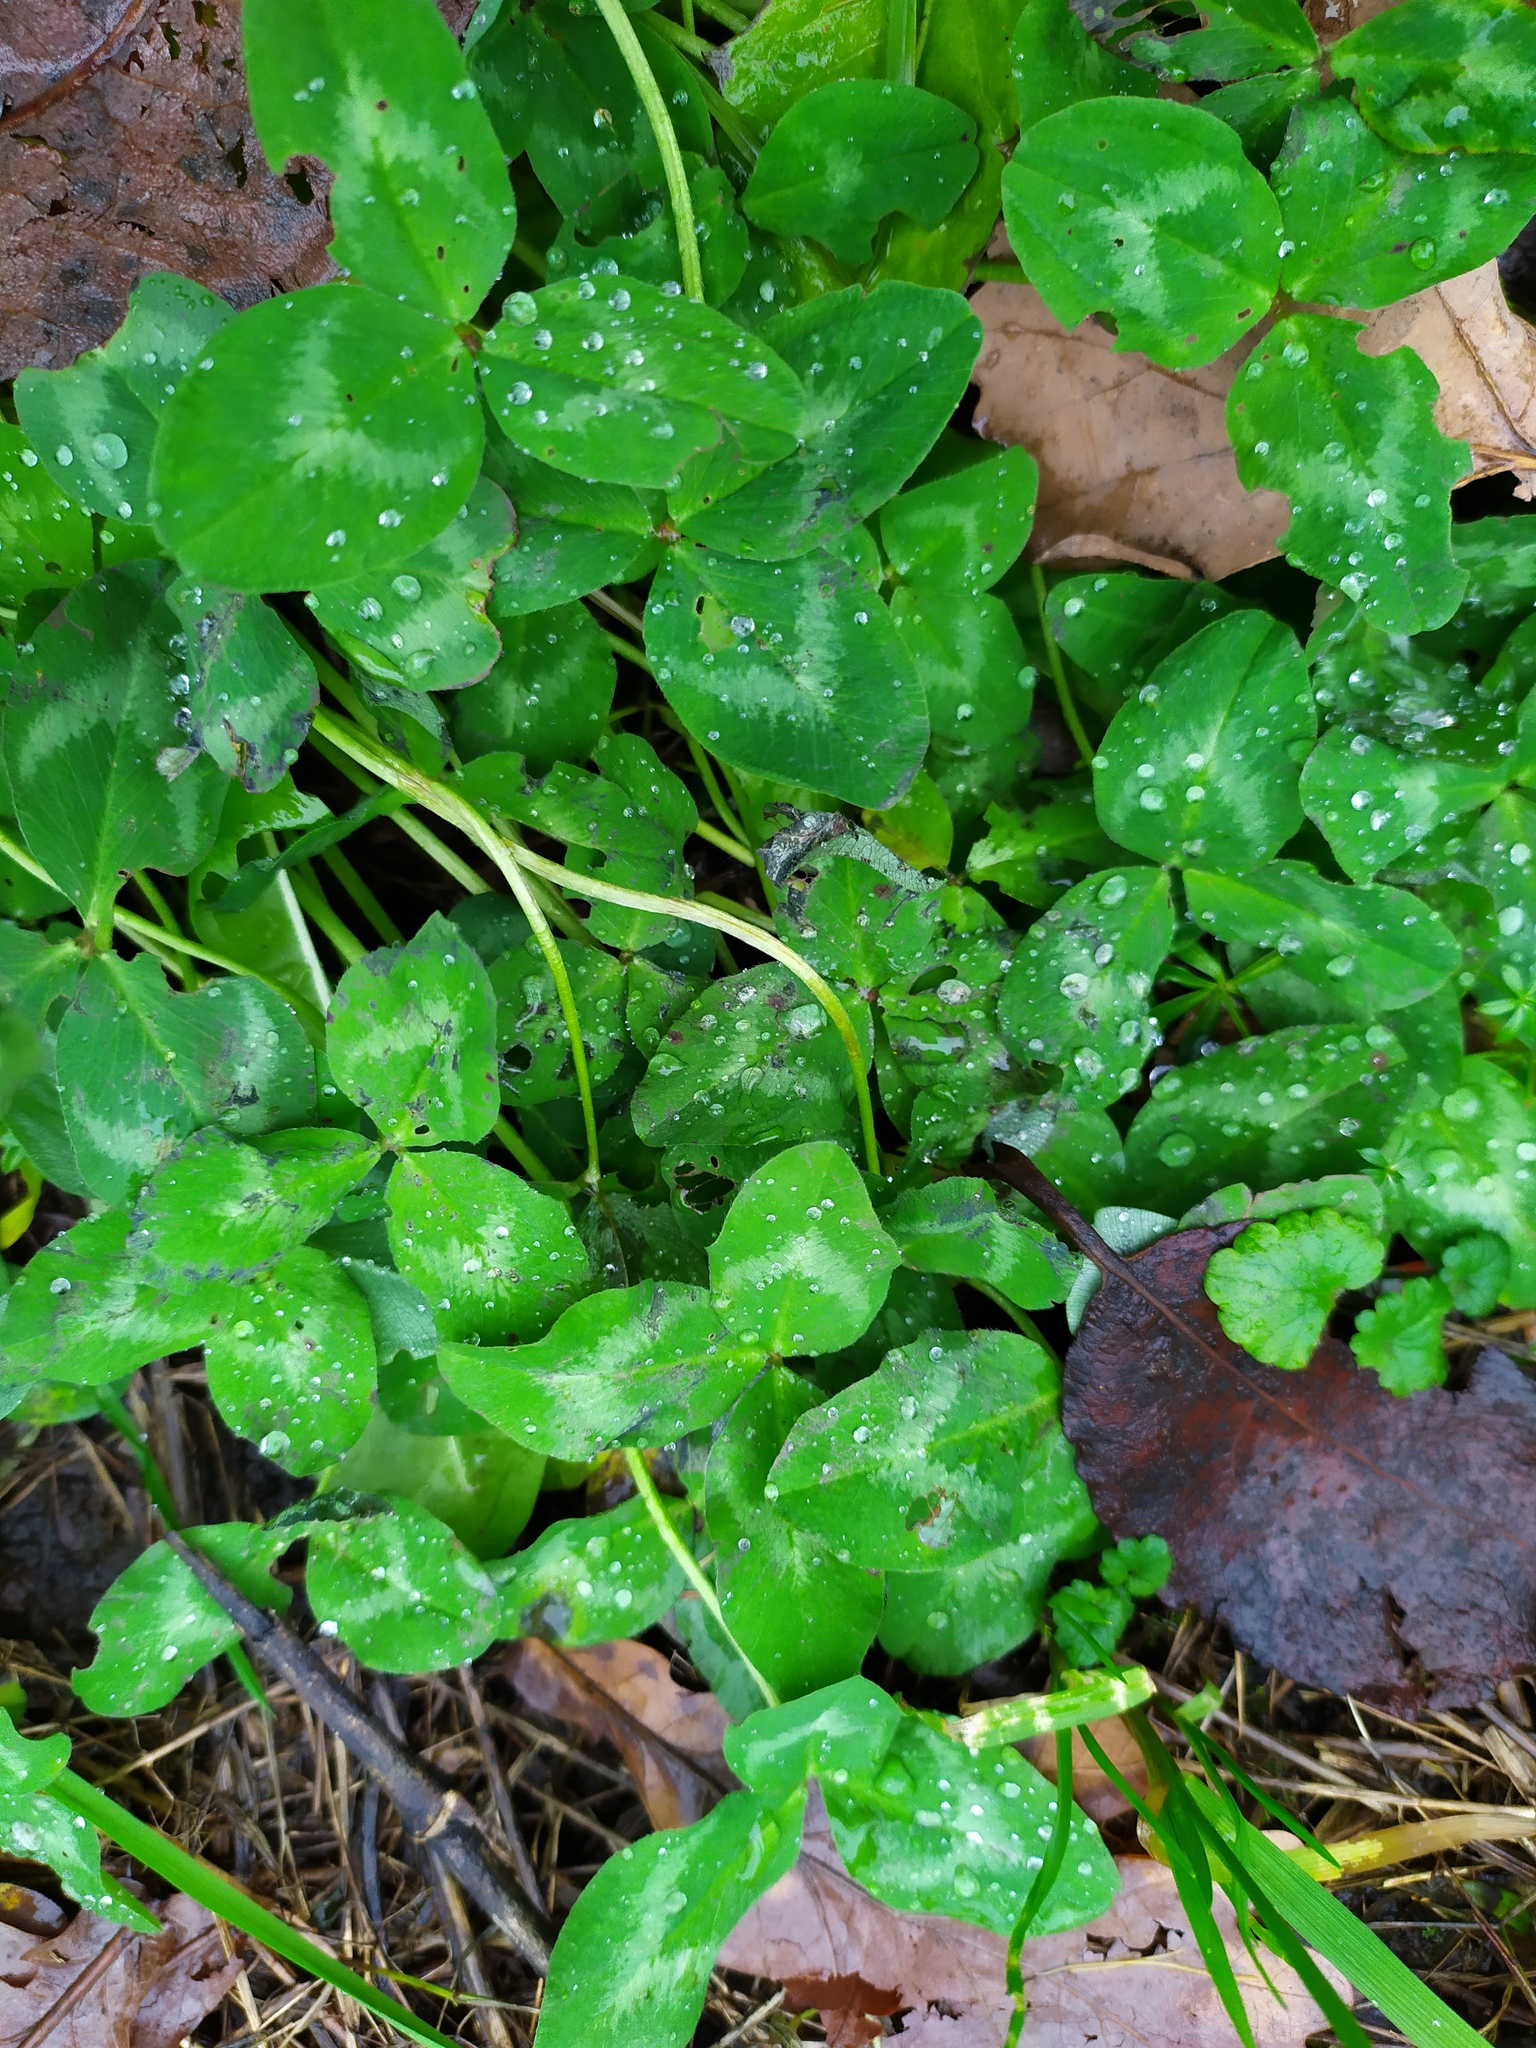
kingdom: Plantae
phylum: Tracheophyta
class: Magnoliopsida
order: Fabales
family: Fabaceae
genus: Trifolium
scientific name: Trifolium pratense
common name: Red clover
